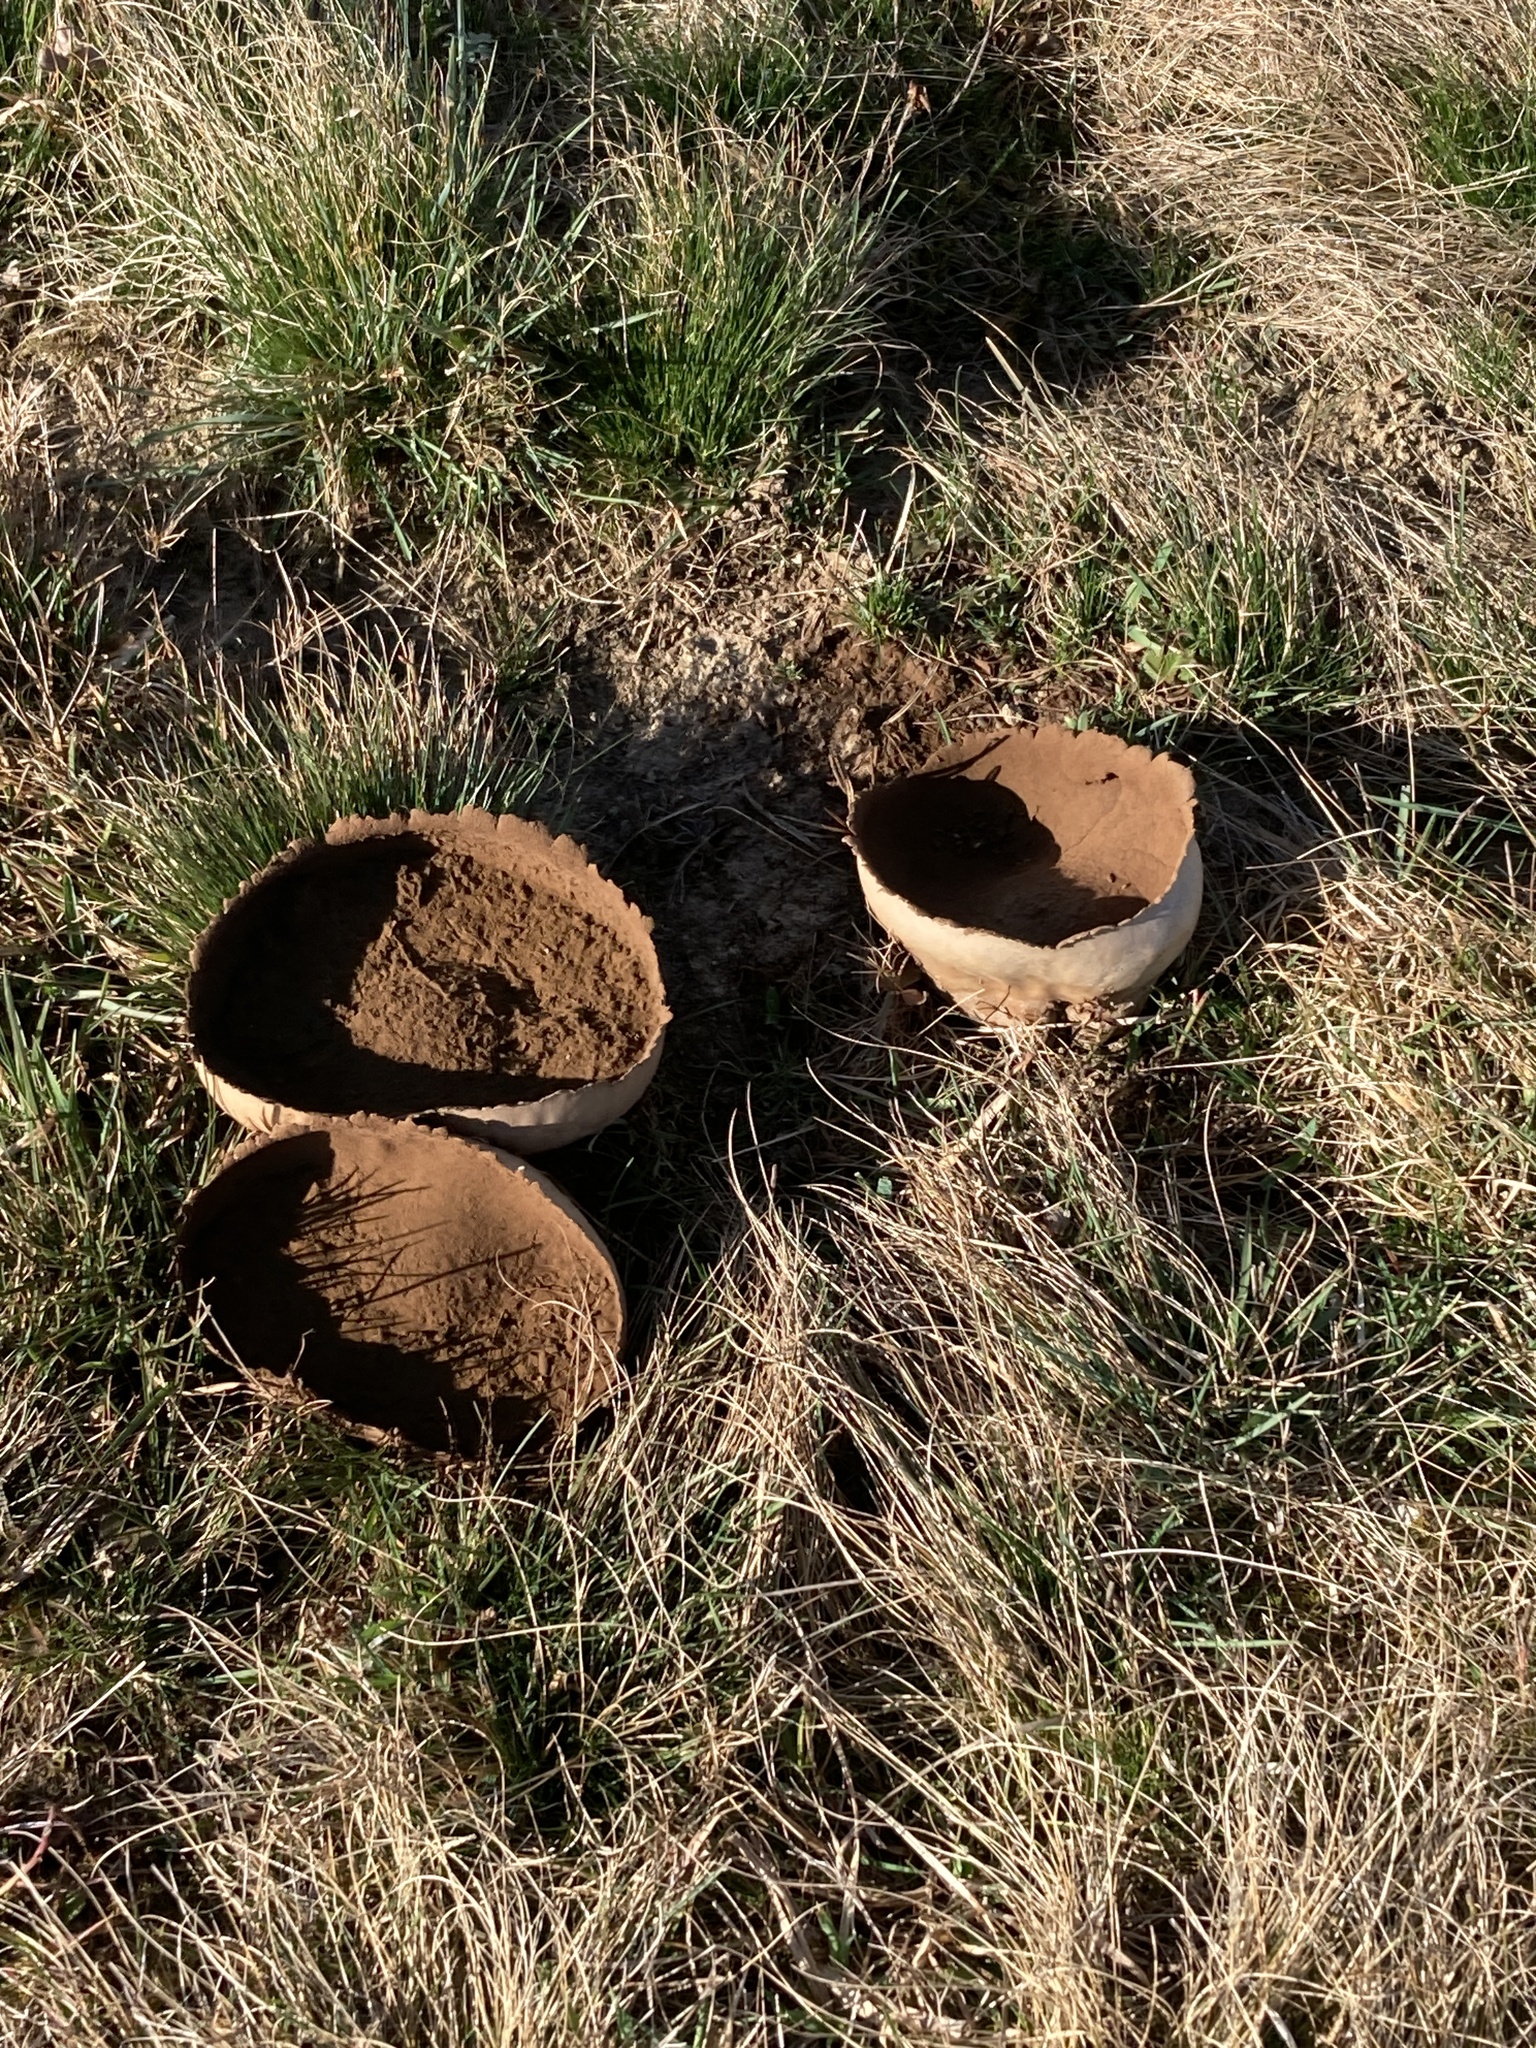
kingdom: Fungi
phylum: Basidiomycota
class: Agaricomycetes
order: Agaricales
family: Lycoperdaceae
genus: Bovistella
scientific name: Bovistella utriformis
